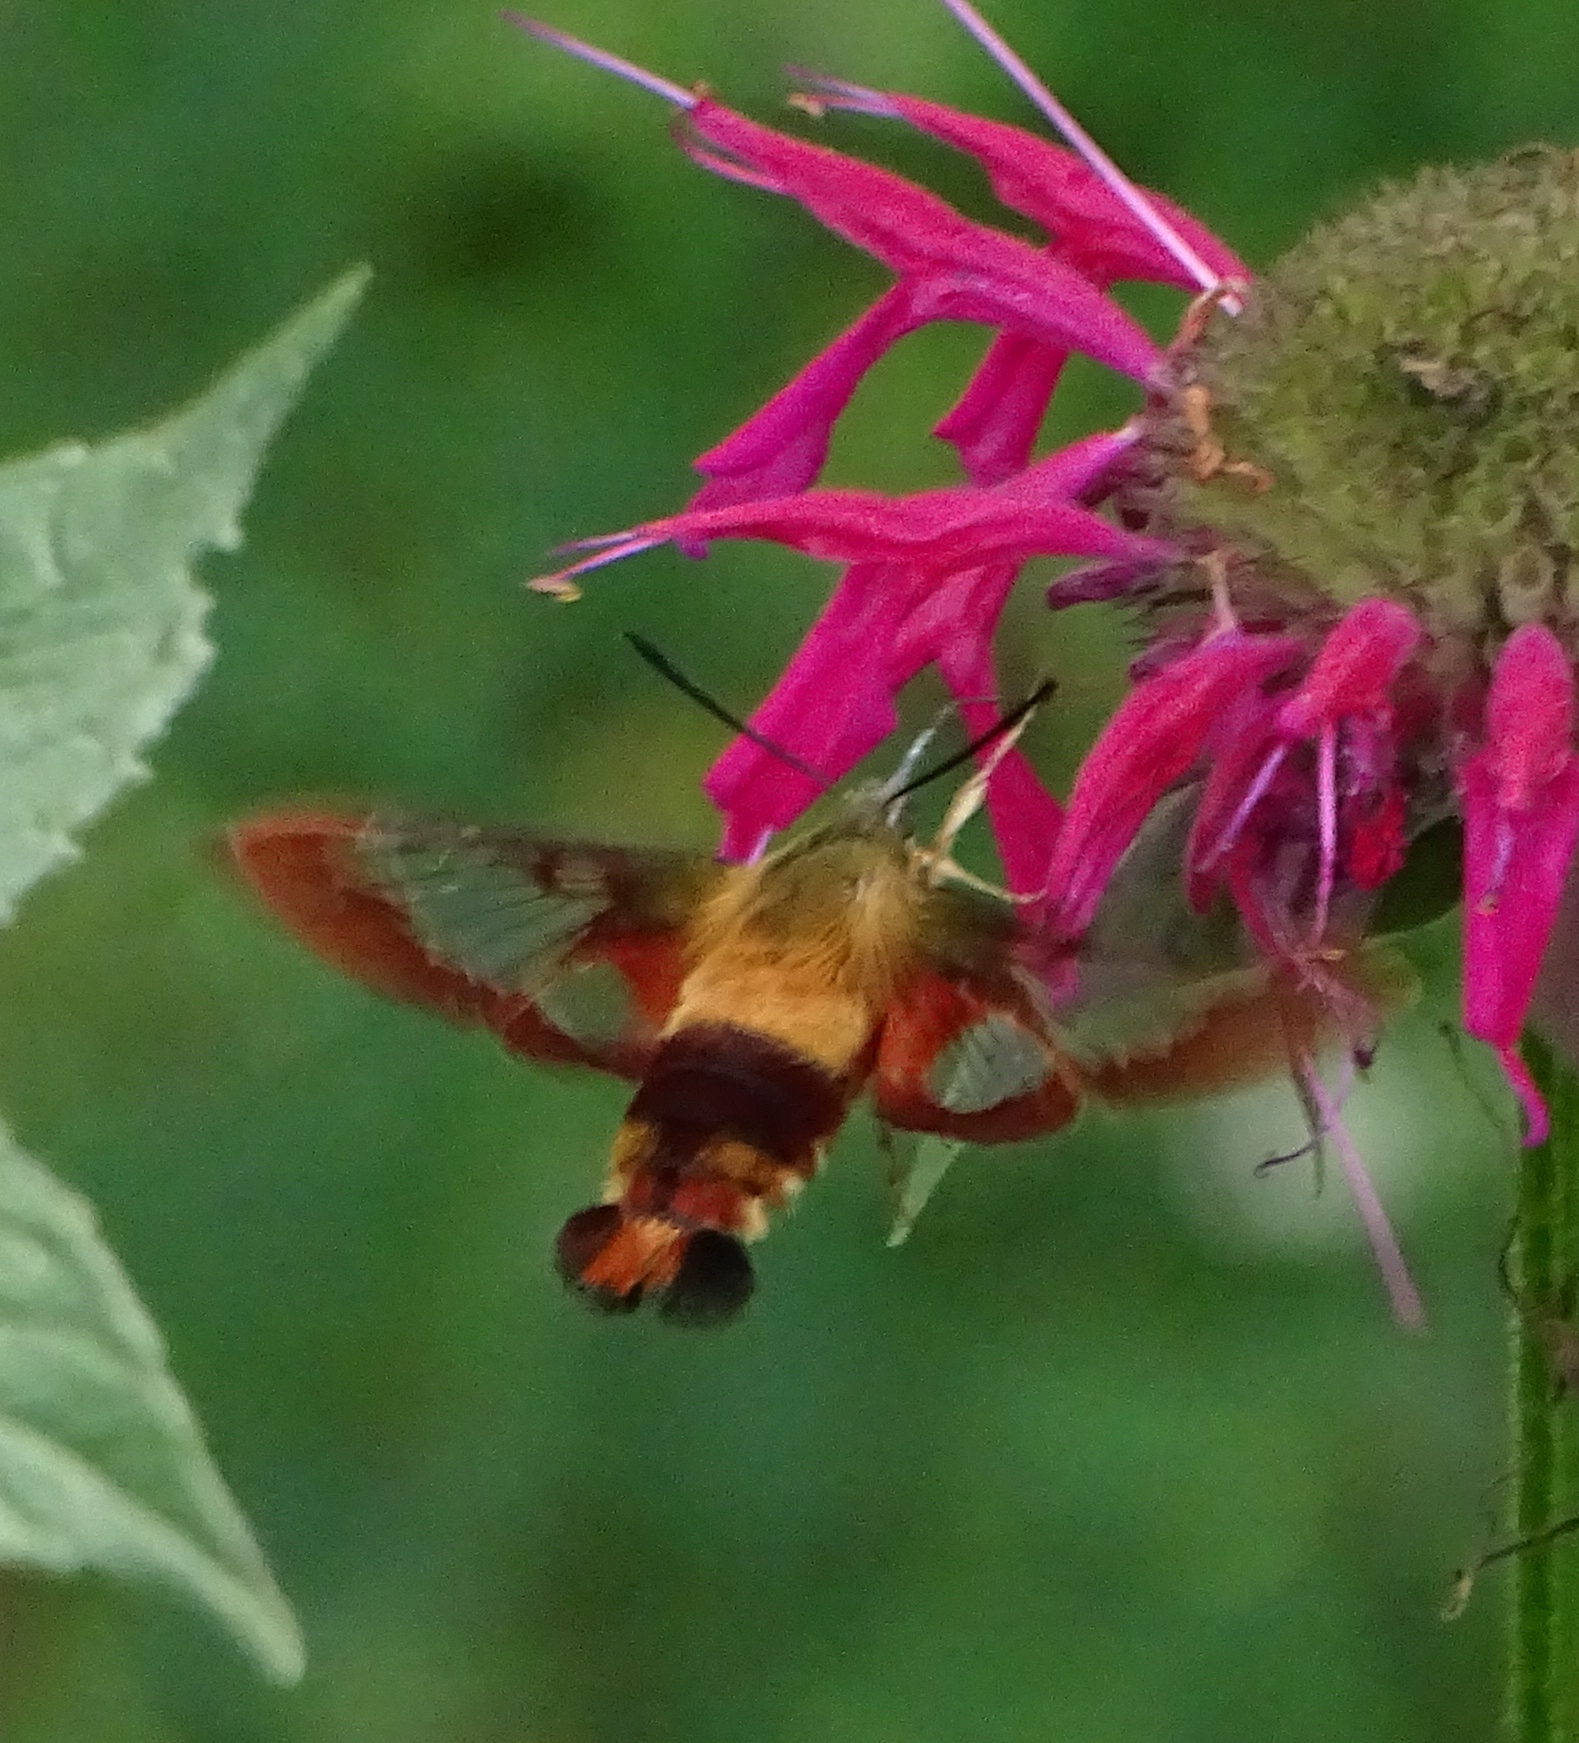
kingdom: Animalia
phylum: Arthropoda
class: Insecta
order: Lepidoptera
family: Sphingidae
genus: Hemaris
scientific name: Hemaris thysbe
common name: Common clear-wing
